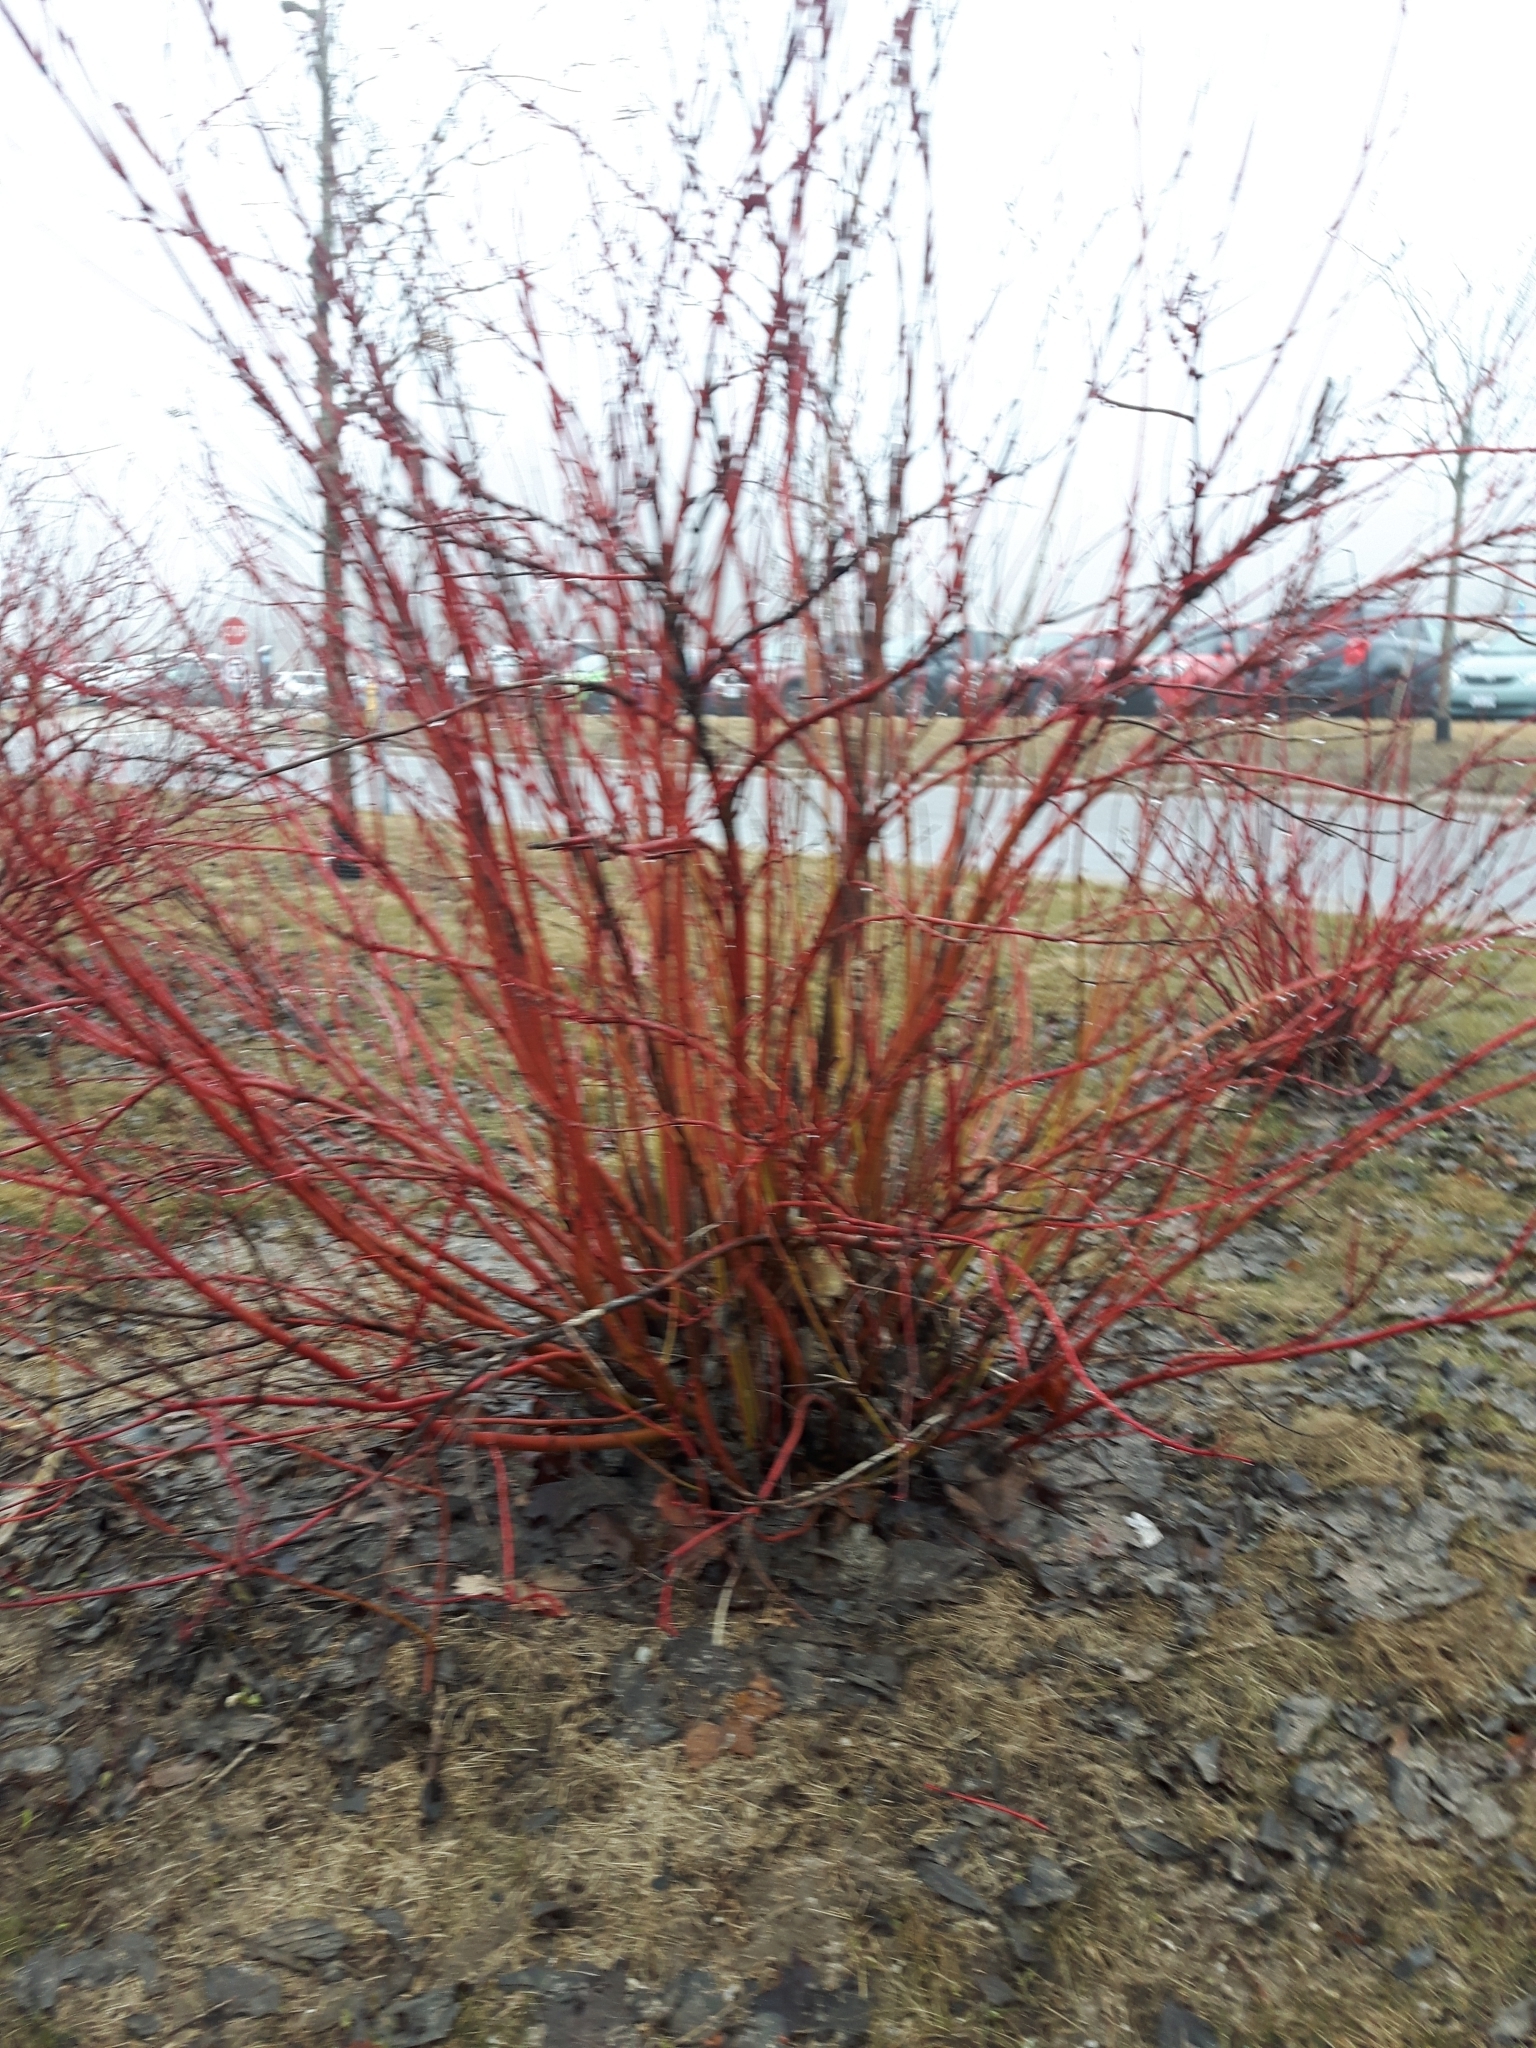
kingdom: Plantae
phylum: Tracheophyta
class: Magnoliopsida
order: Cornales
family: Cornaceae
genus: Cornus
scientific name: Cornus sericea
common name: Red-osier dogwood
